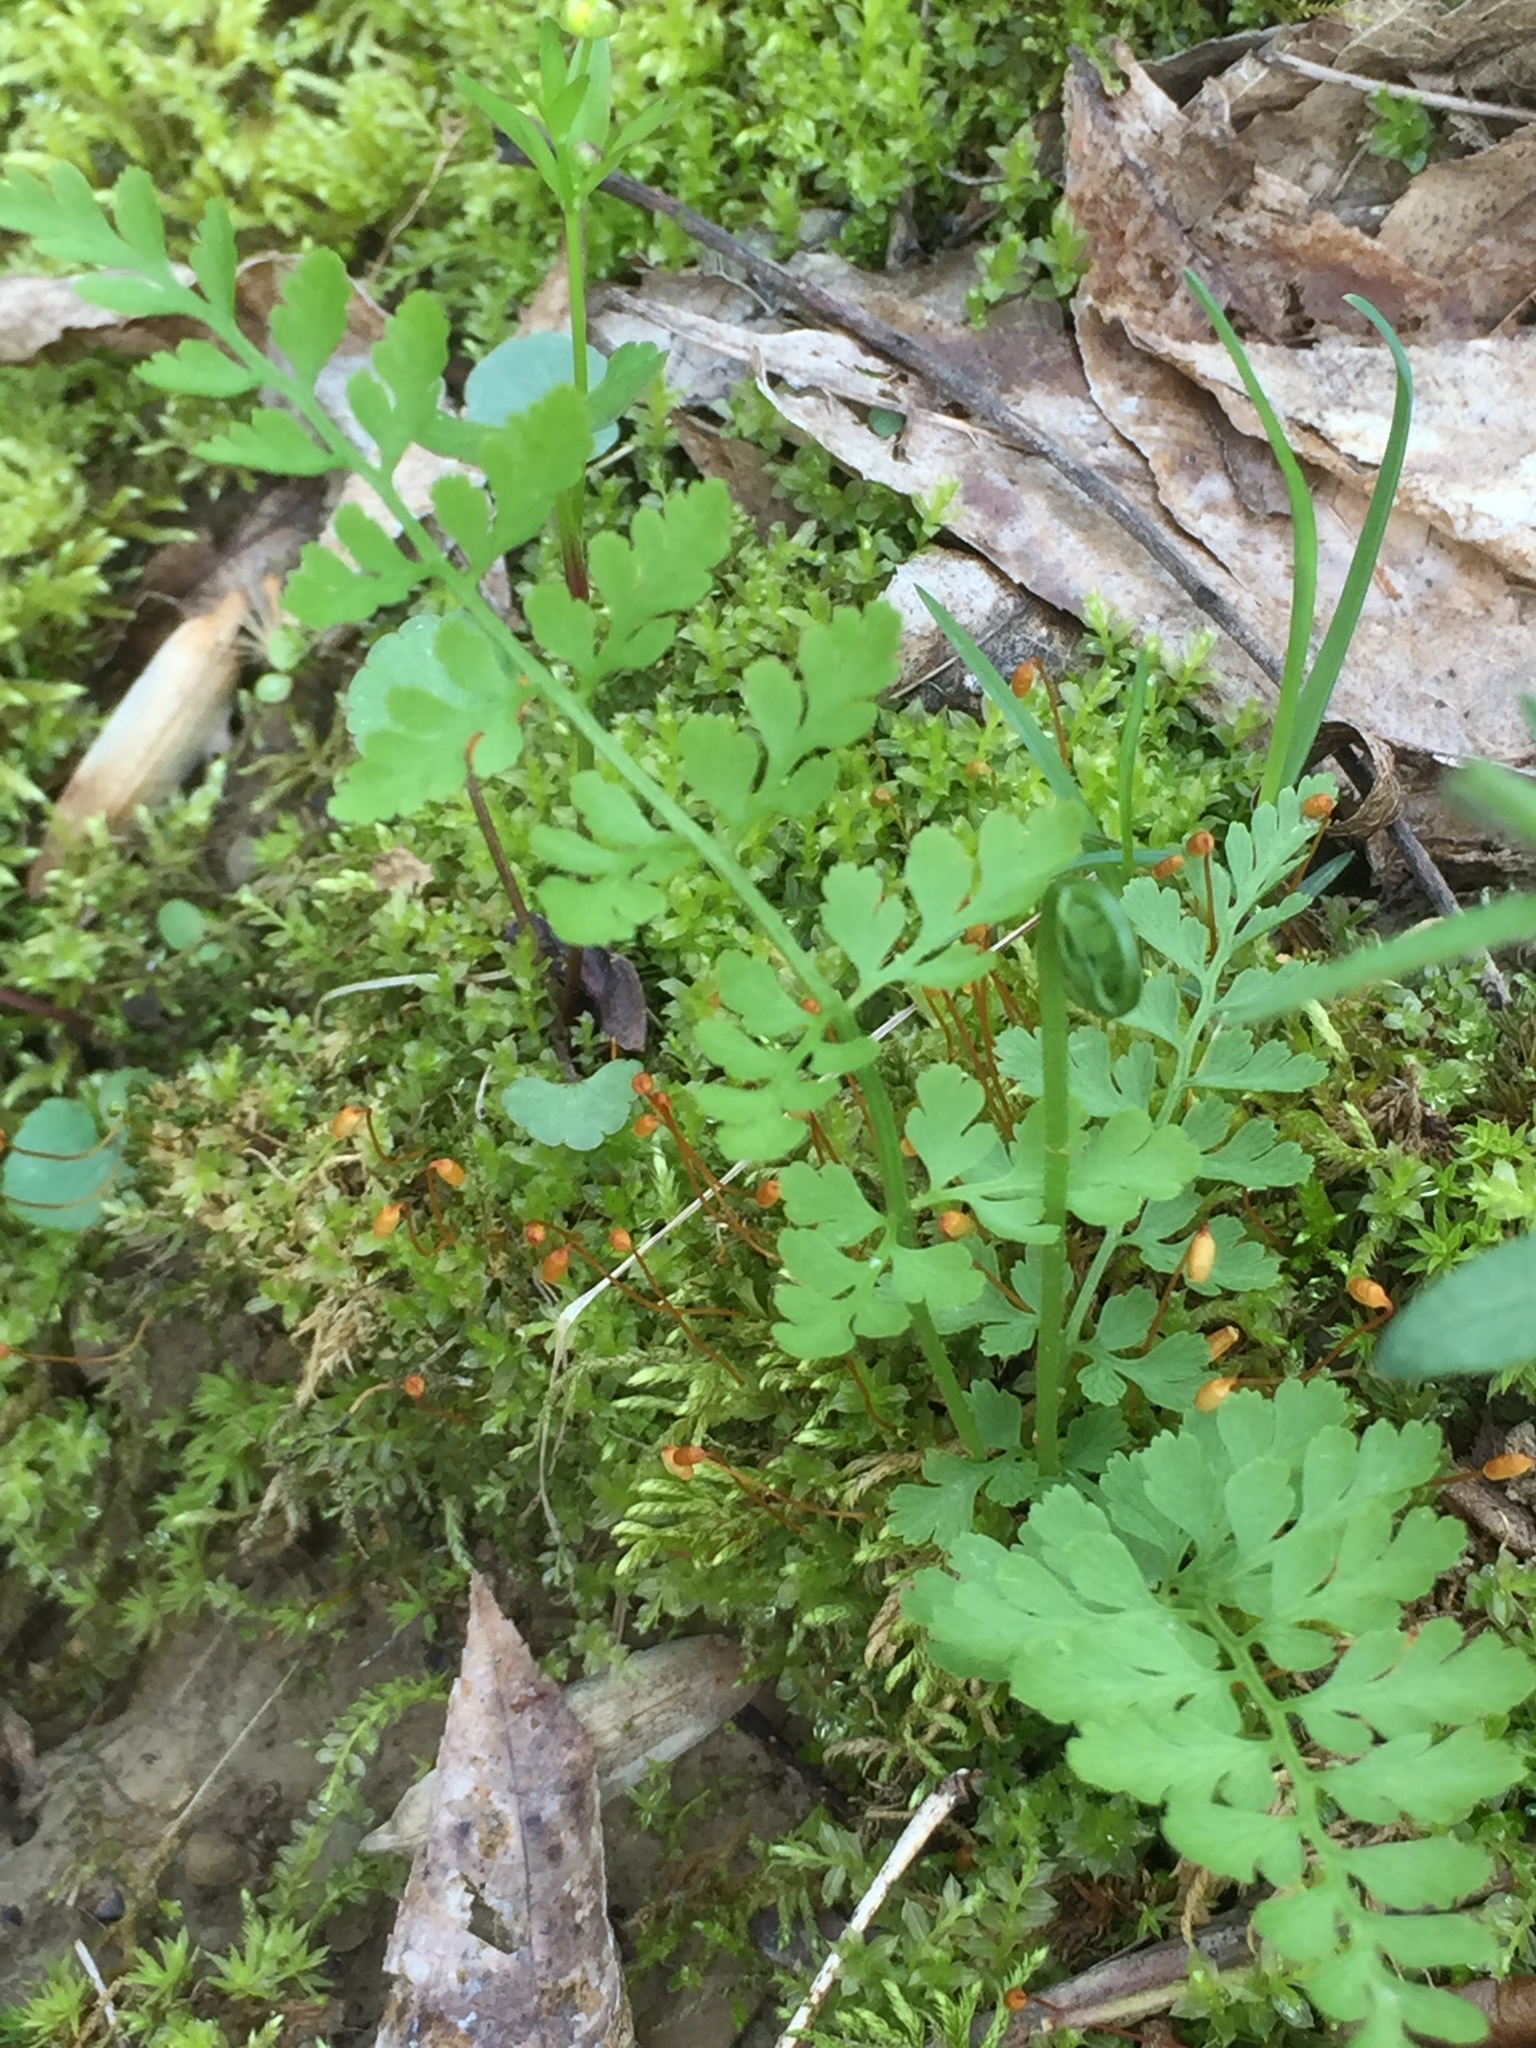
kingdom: Plantae
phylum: Tracheophyta
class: Polypodiopsida
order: Polypodiales
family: Cystopteridaceae
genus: Cystopteris
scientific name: Cystopteris protrusa
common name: Lowland brittle fern
